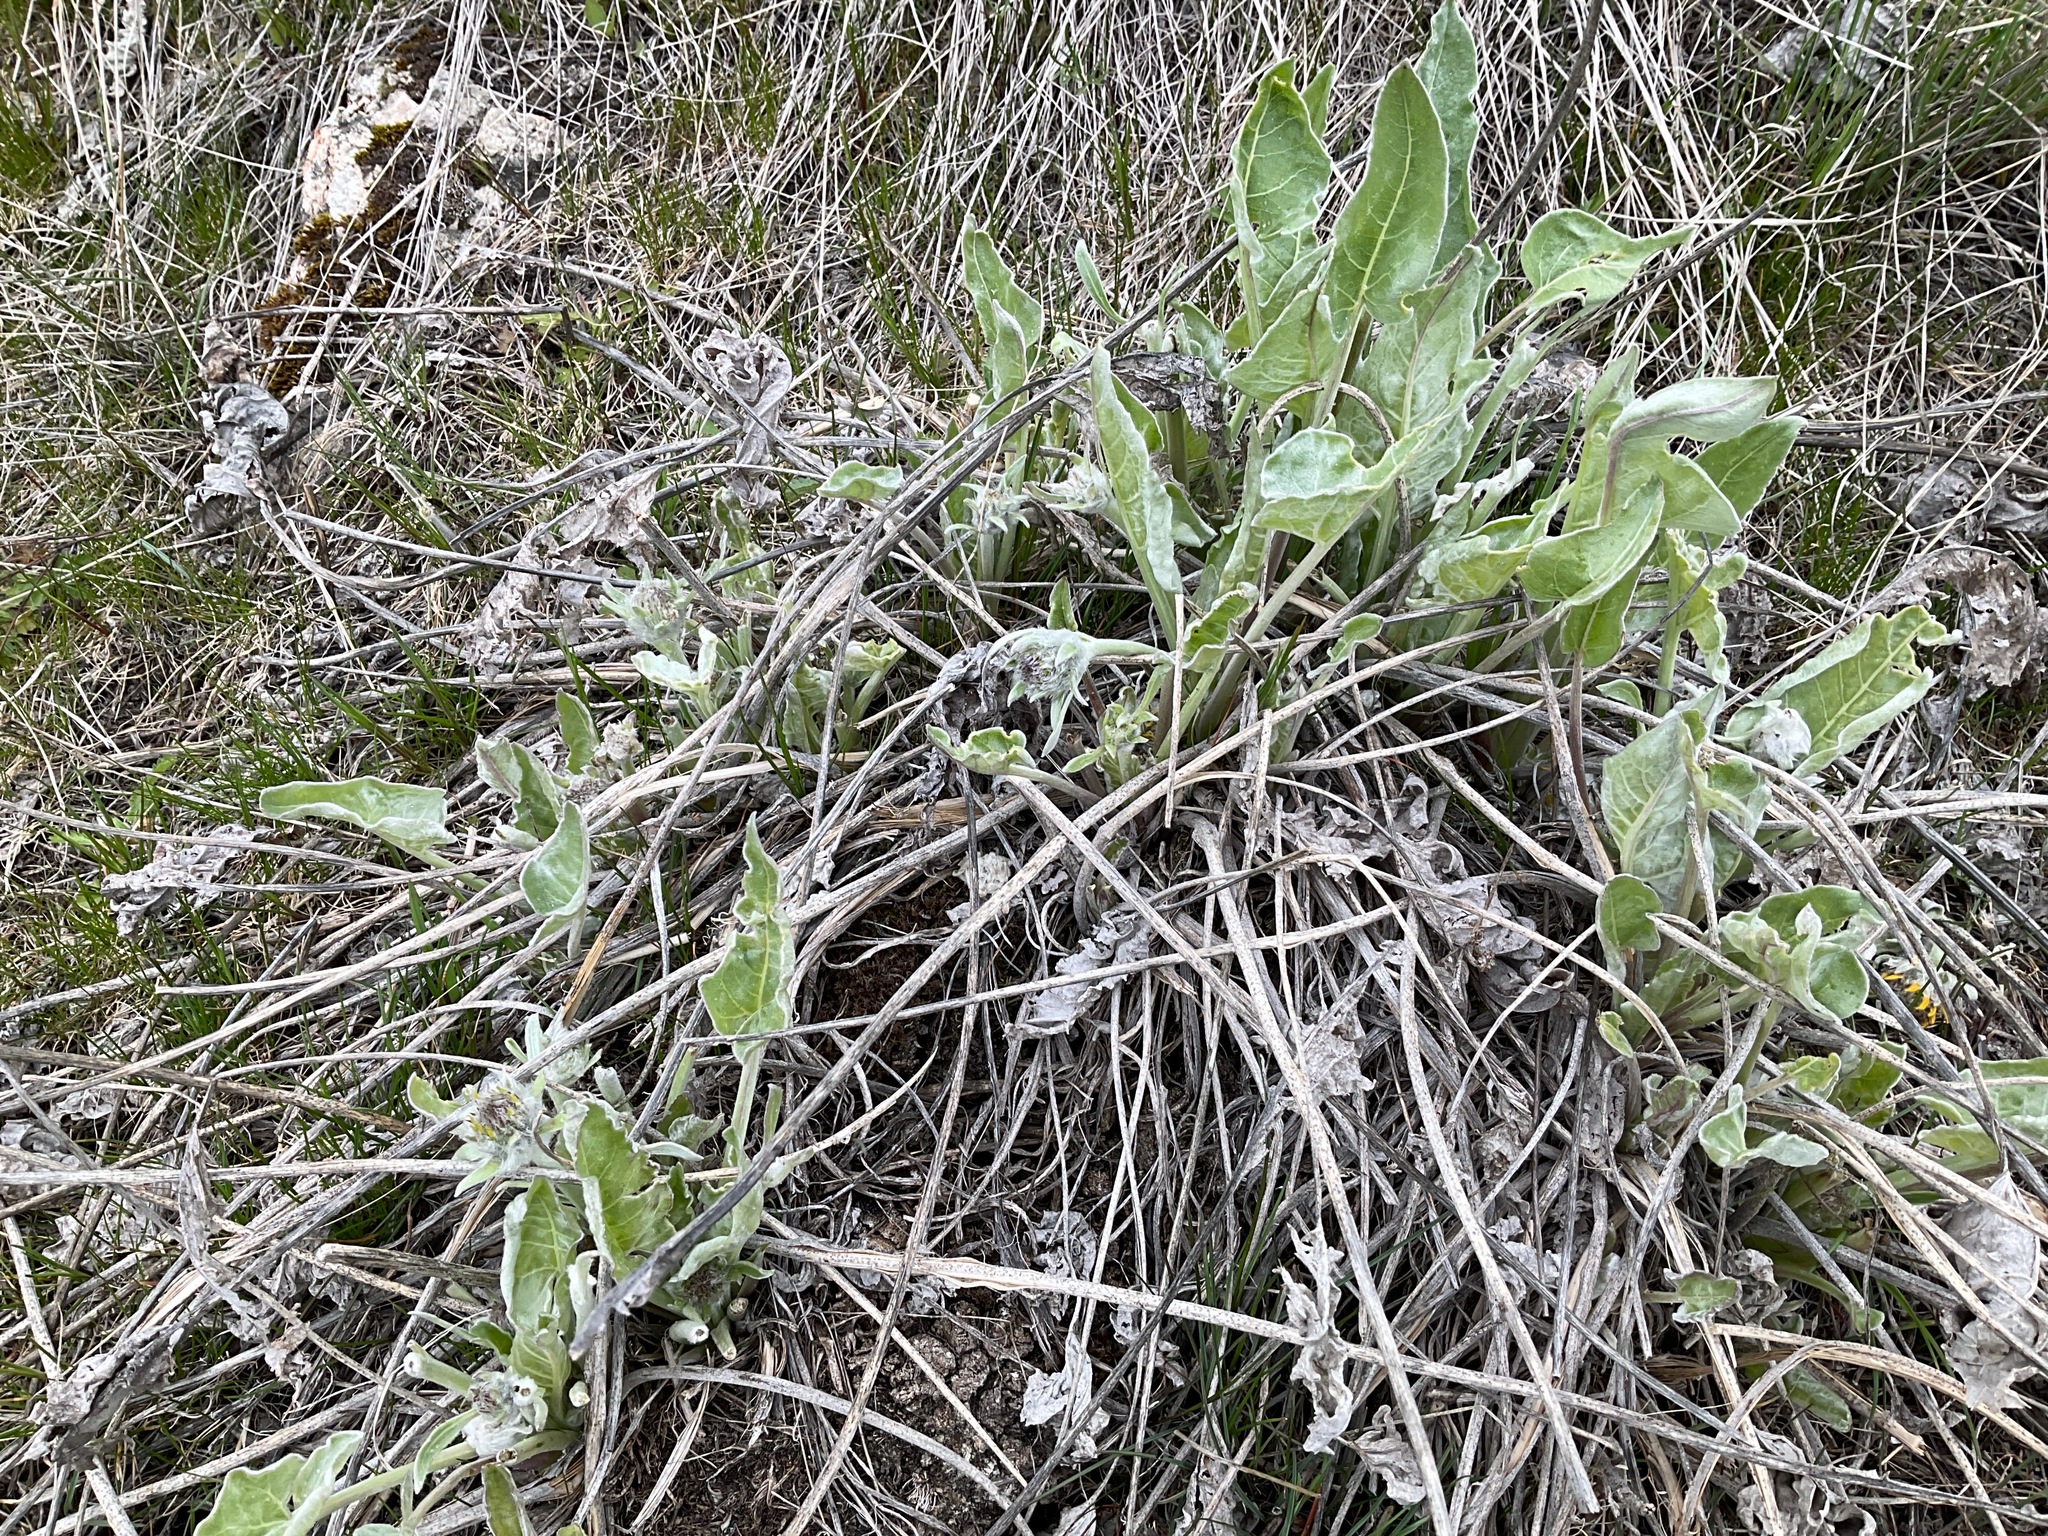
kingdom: Plantae
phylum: Tracheophyta
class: Magnoliopsida
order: Asterales
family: Asteraceae
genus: Wyethia
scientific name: Wyethia sagittata
